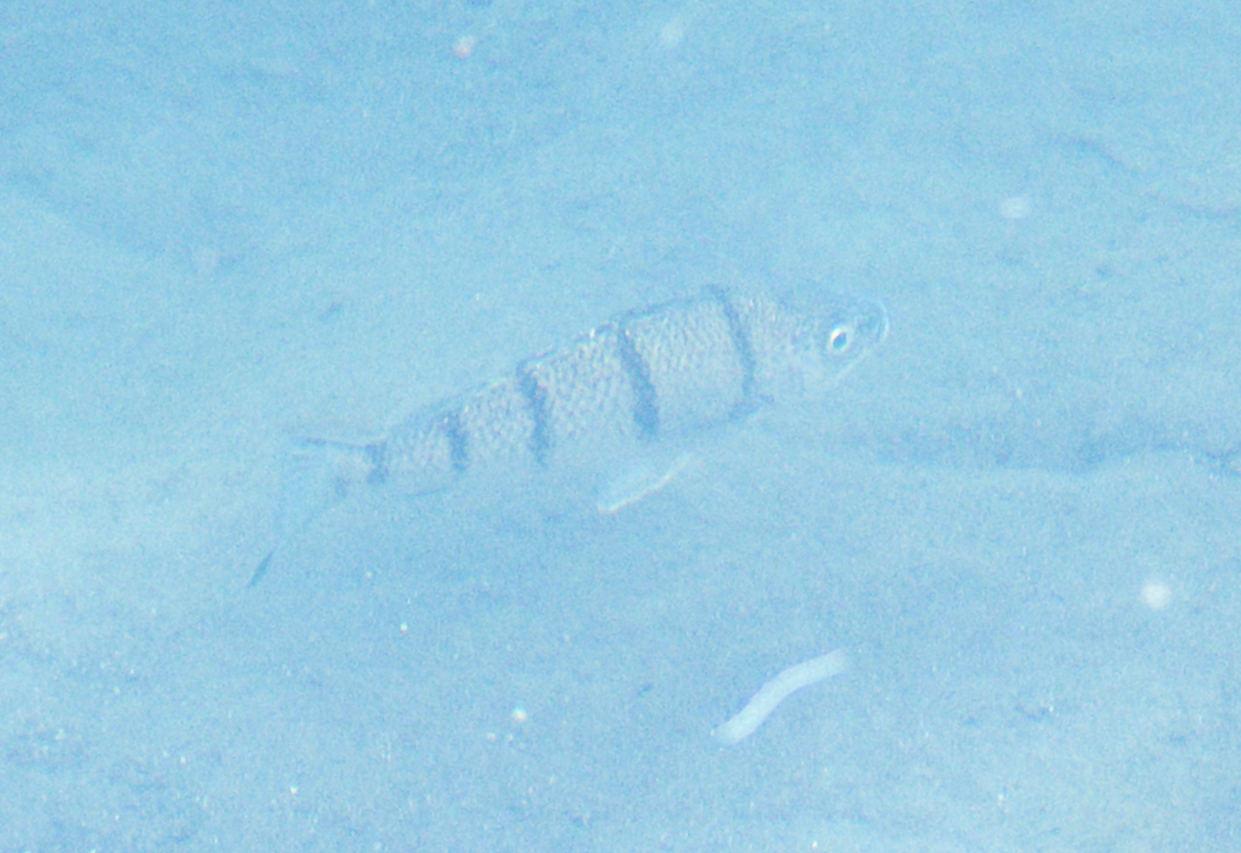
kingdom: Animalia
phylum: Chordata
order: Perciformes
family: Terapontidae
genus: Amniataba
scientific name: Amniataba percoides
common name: Banded grunter
